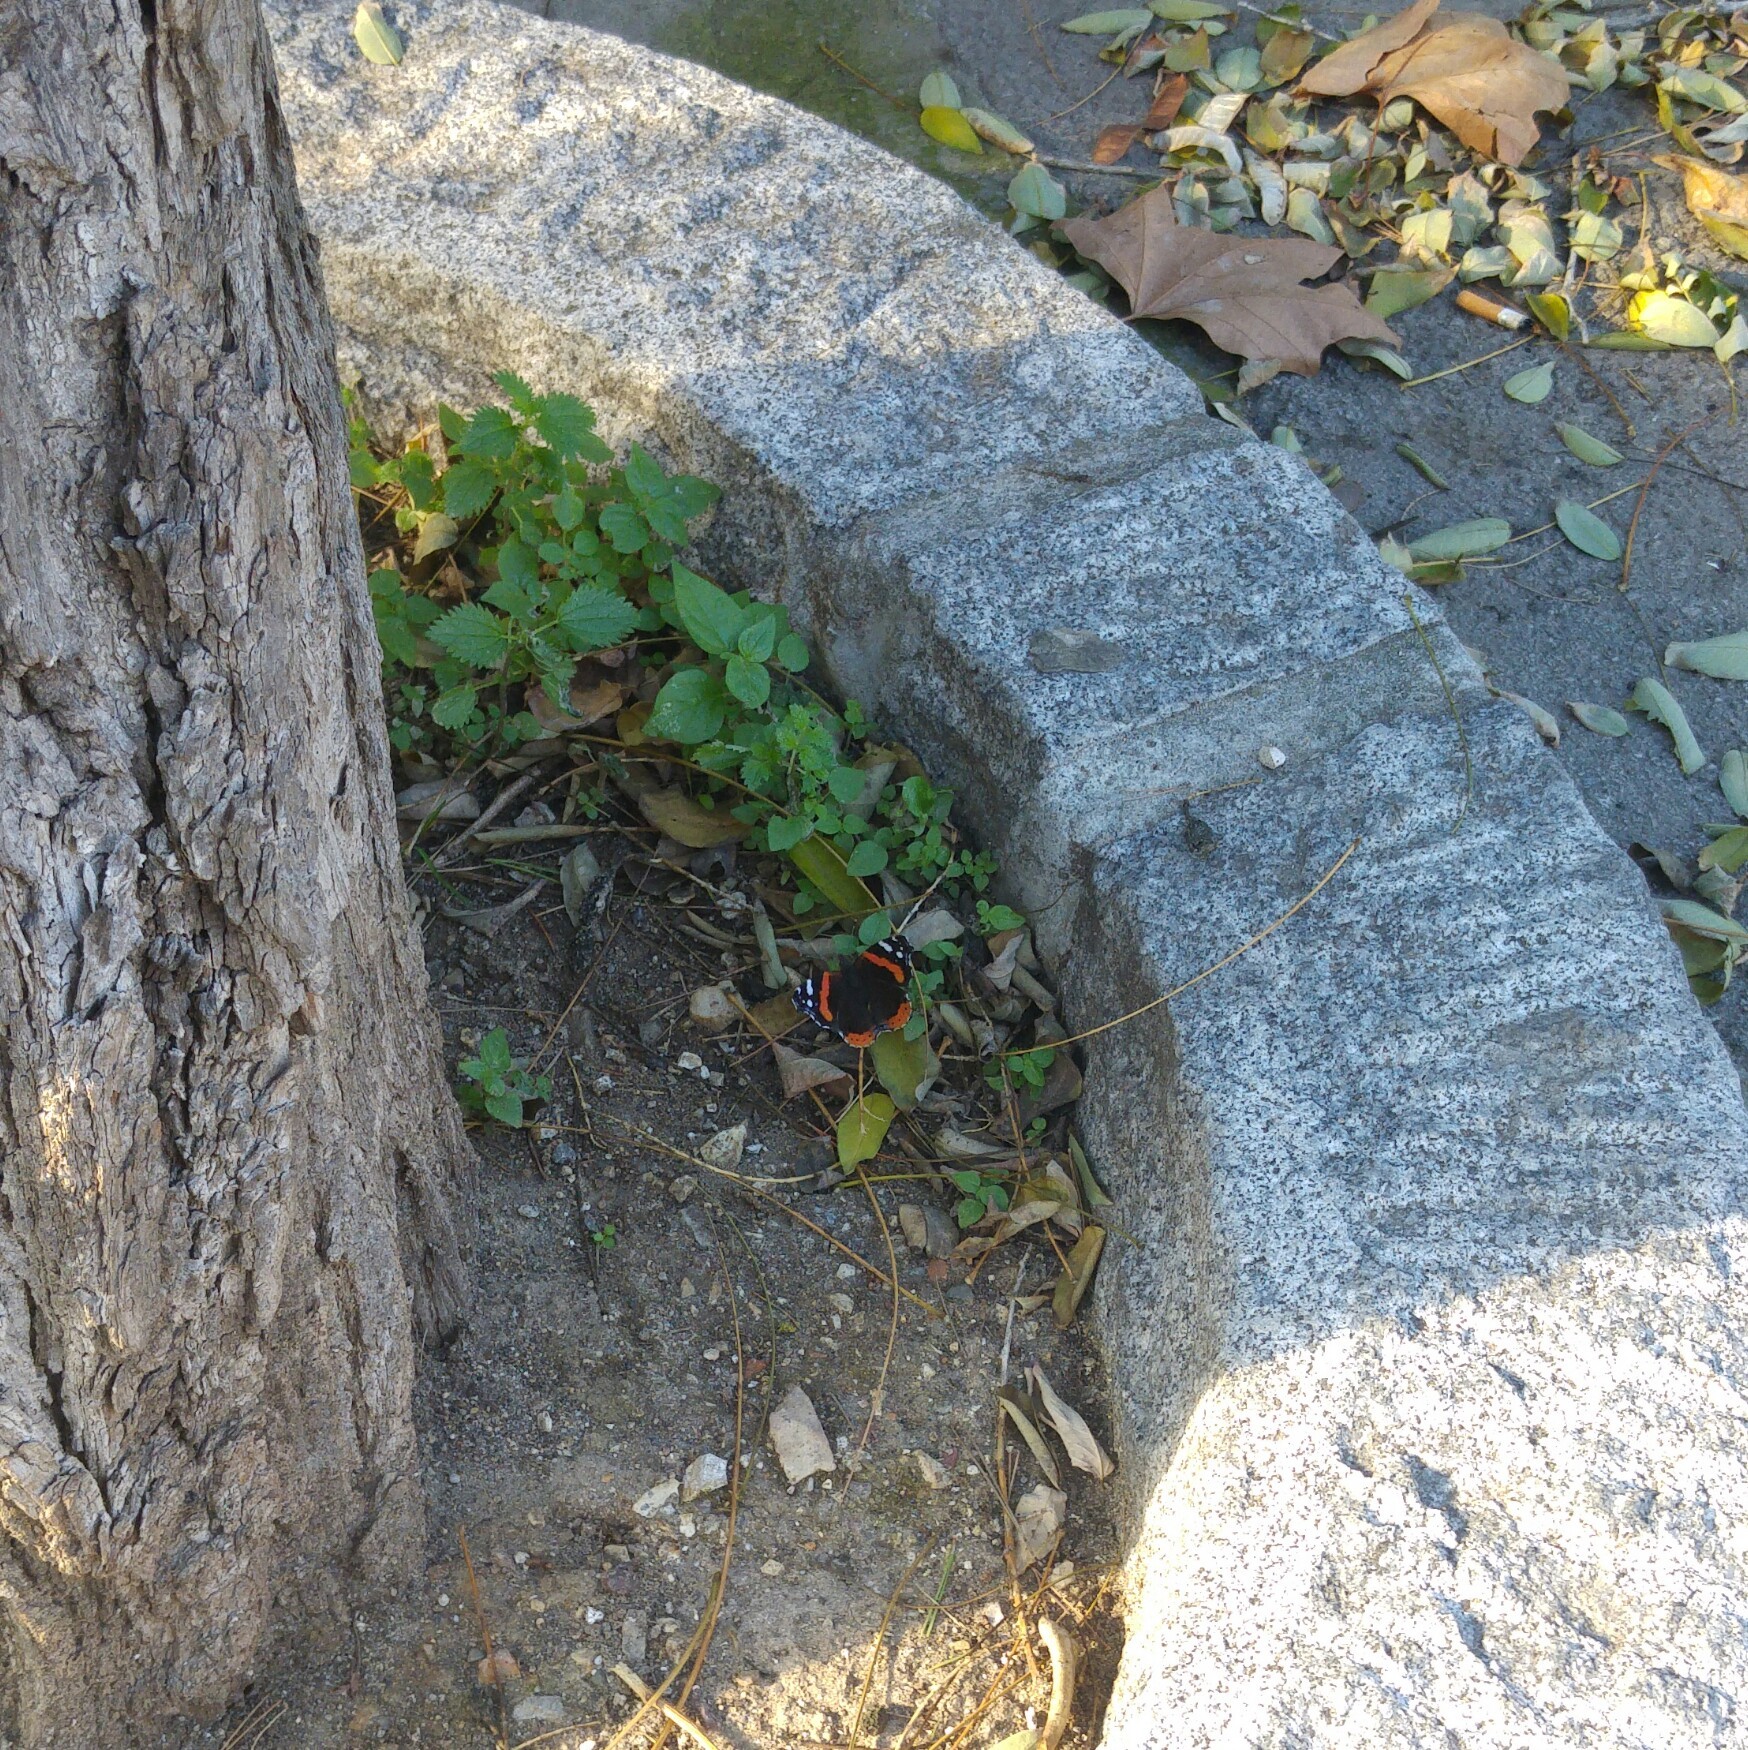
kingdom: Animalia
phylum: Arthropoda
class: Insecta
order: Lepidoptera
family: Nymphalidae
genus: Vanessa
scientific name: Vanessa atalanta
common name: Red admiral
